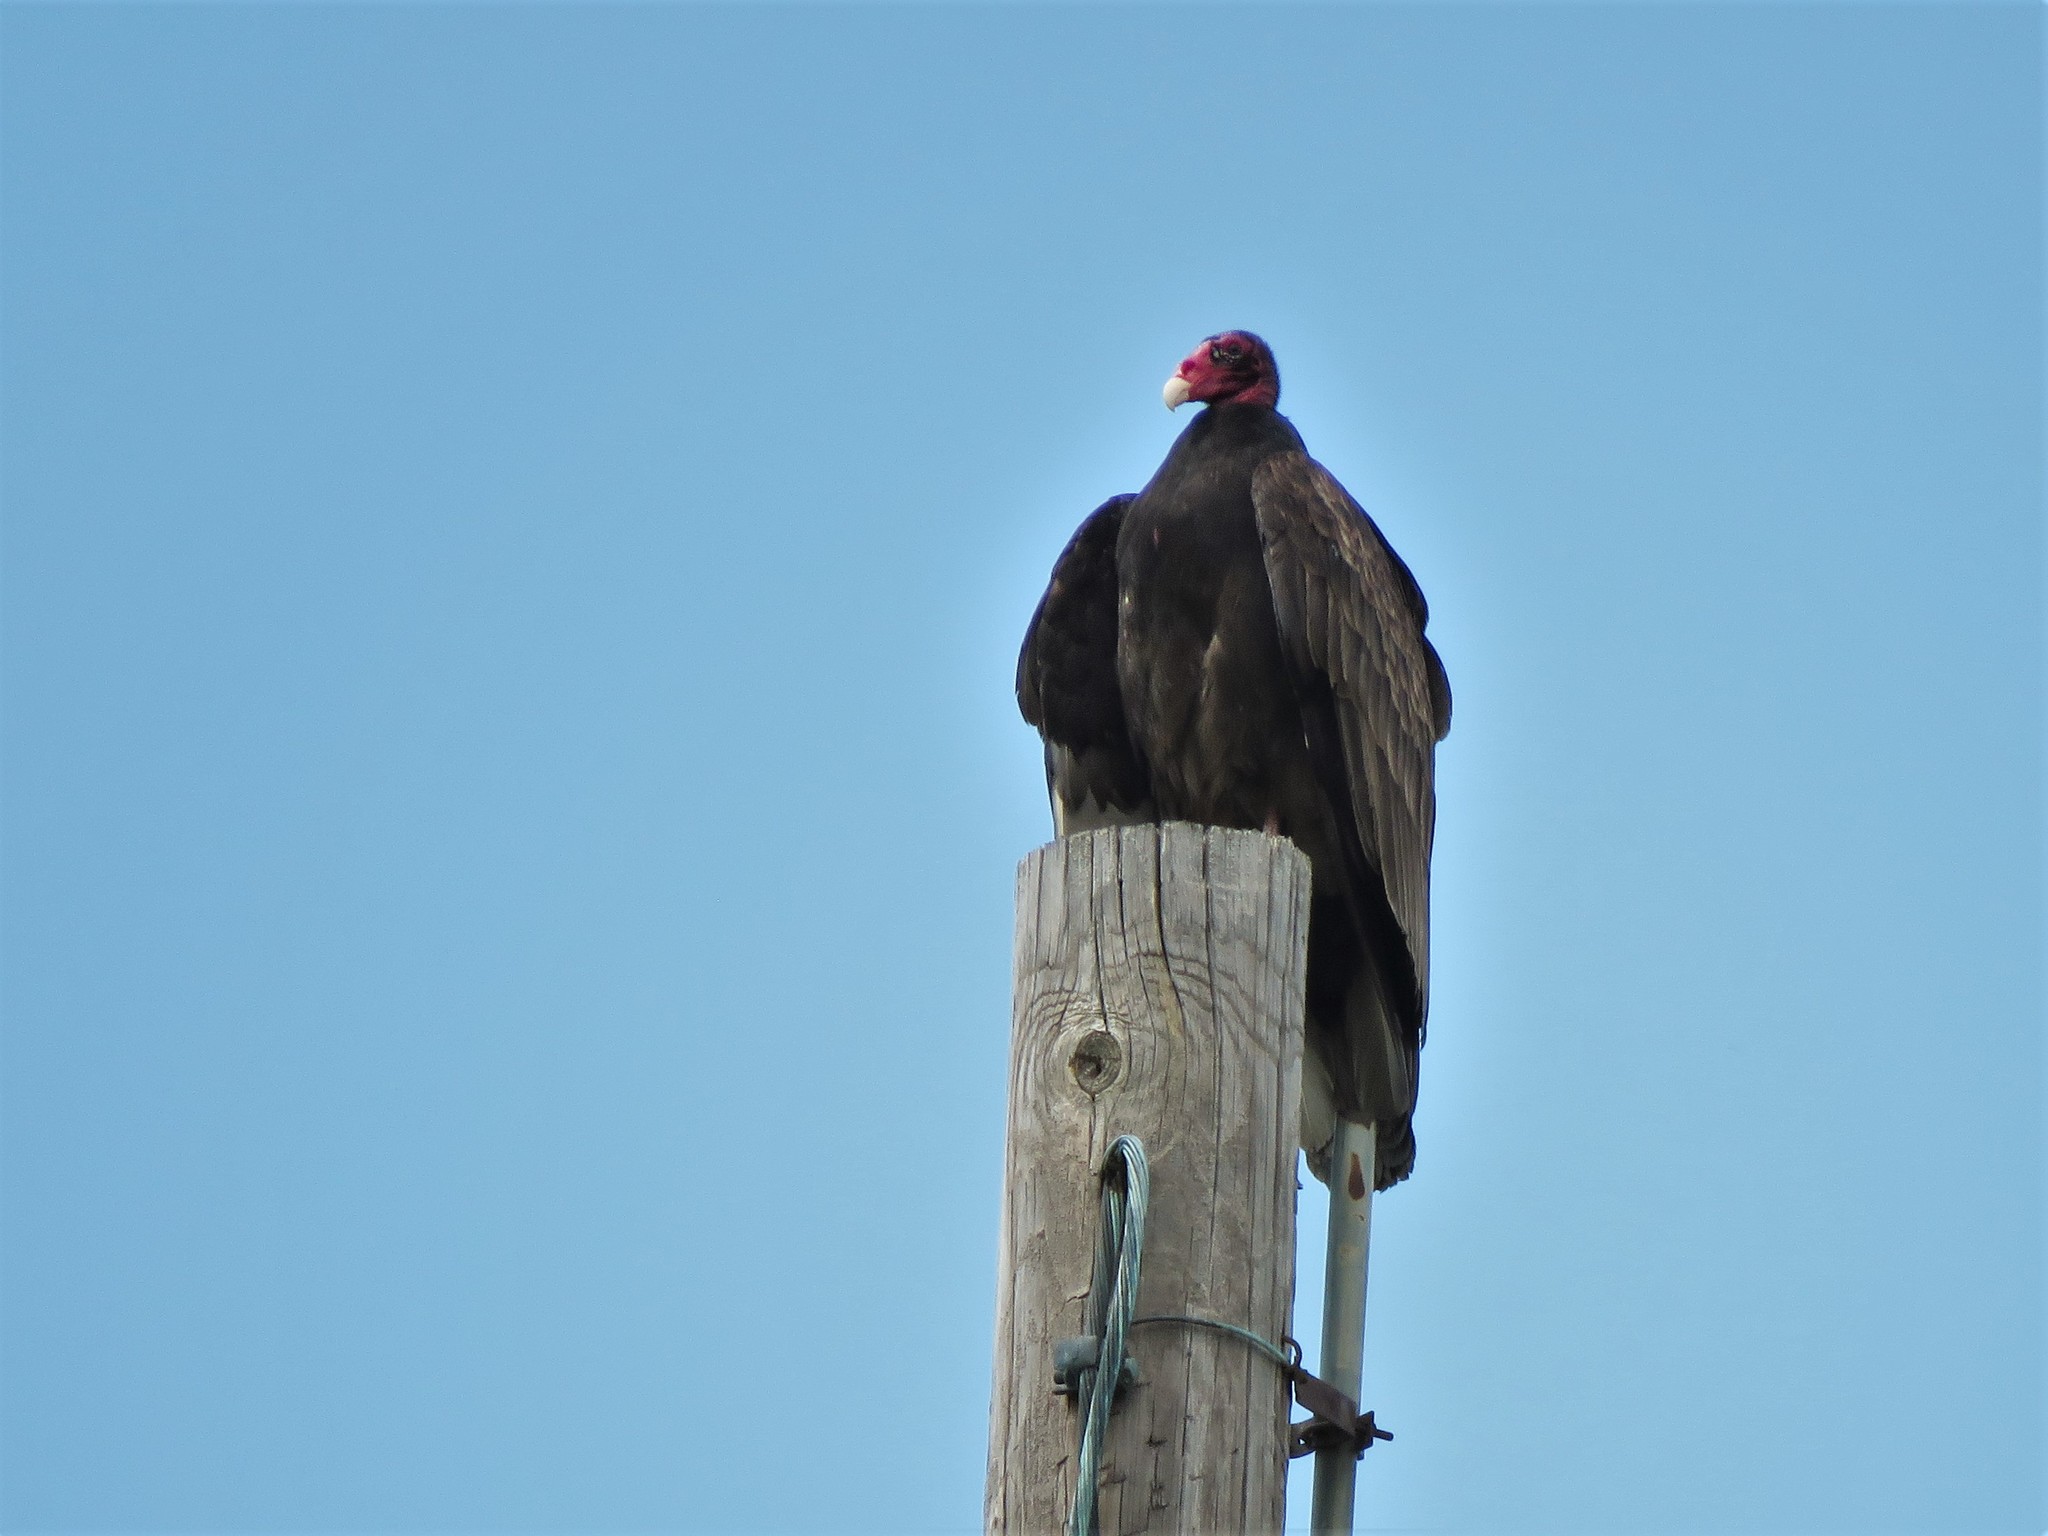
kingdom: Animalia
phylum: Chordata
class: Aves
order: Accipitriformes
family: Cathartidae
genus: Cathartes
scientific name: Cathartes aura
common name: Turkey vulture
